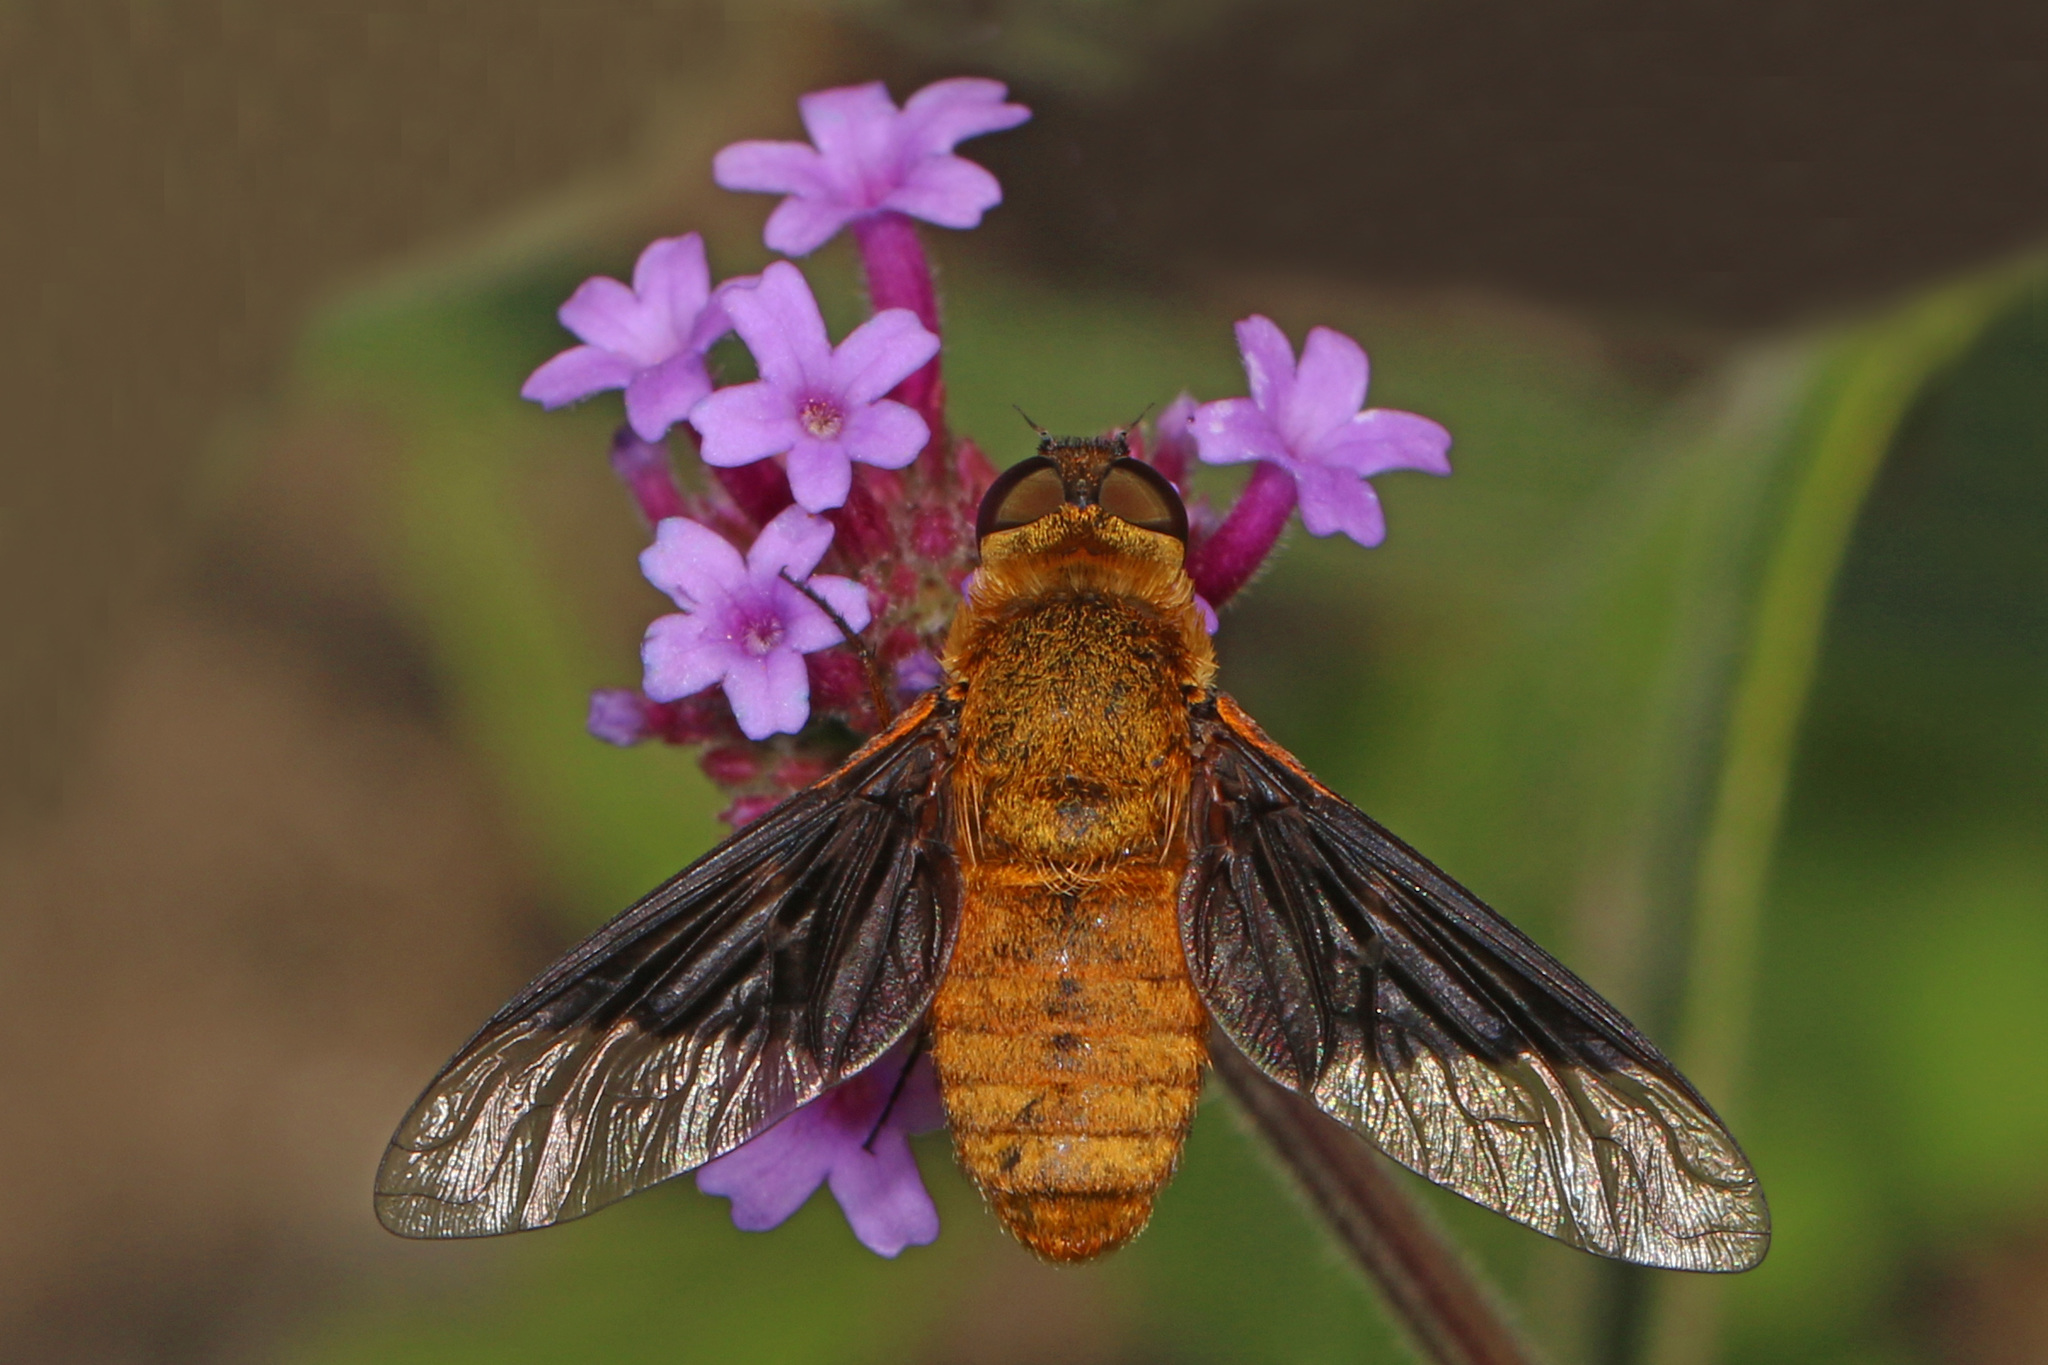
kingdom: Animalia
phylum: Arthropoda
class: Insecta
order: Diptera
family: Bombyliidae
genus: Chrysanthrax
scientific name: Chrysanthrax cypris
